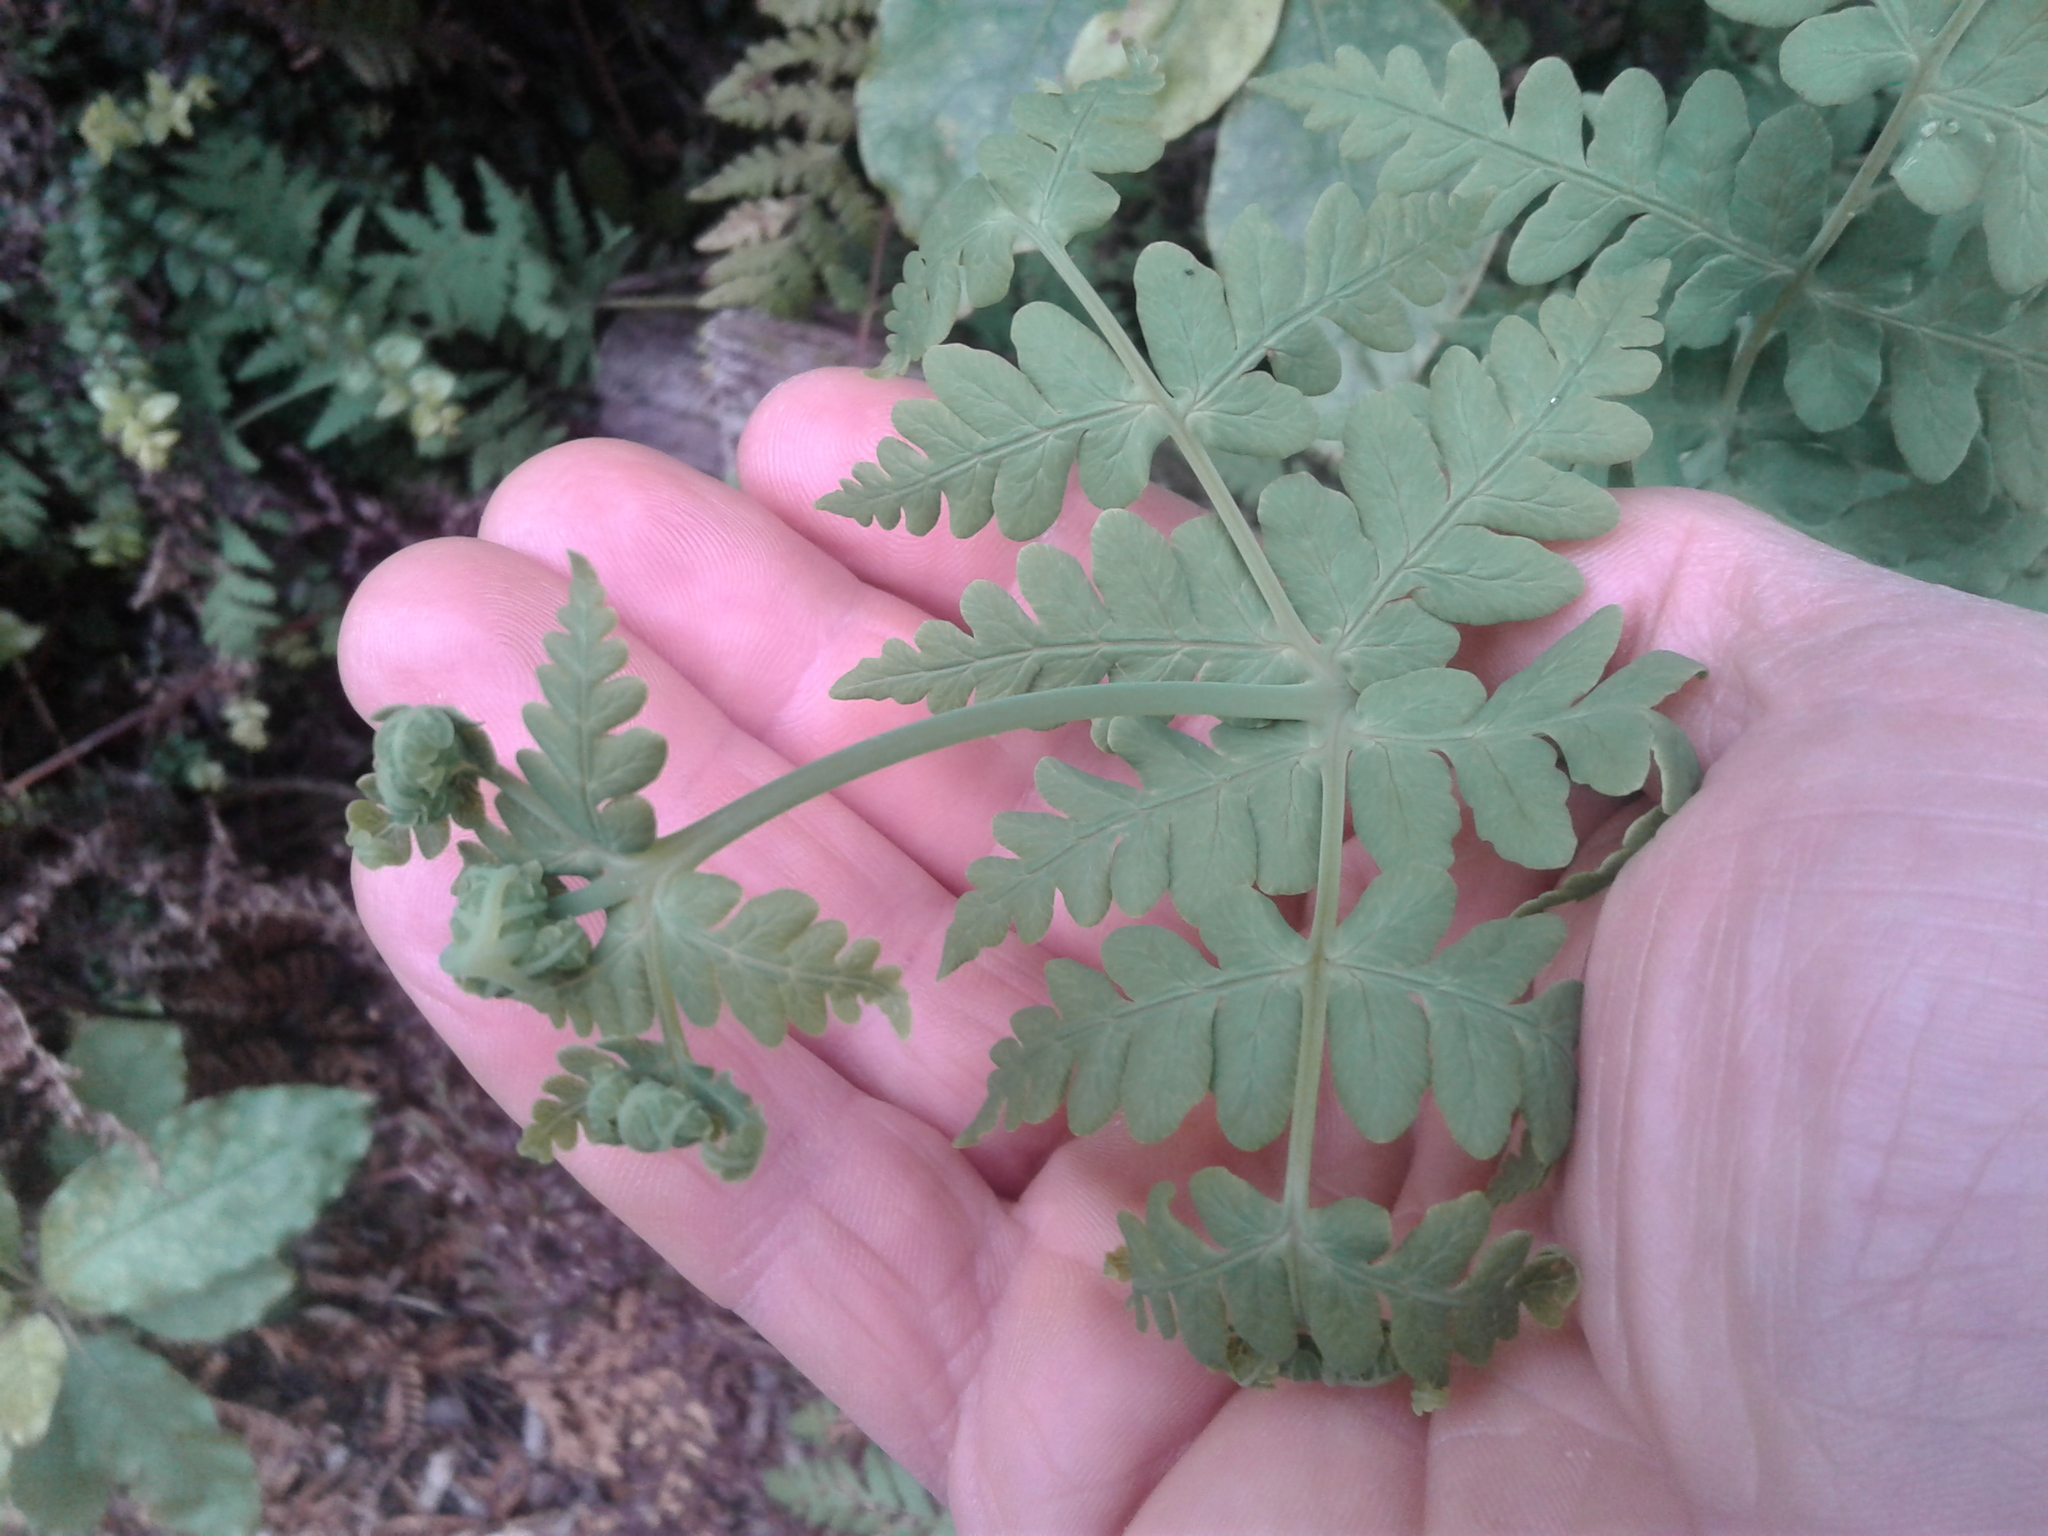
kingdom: Plantae
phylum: Tracheophyta
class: Polypodiopsida
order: Polypodiales
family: Dennstaedtiaceae
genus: Histiopteris
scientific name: Histiopteris incisa
